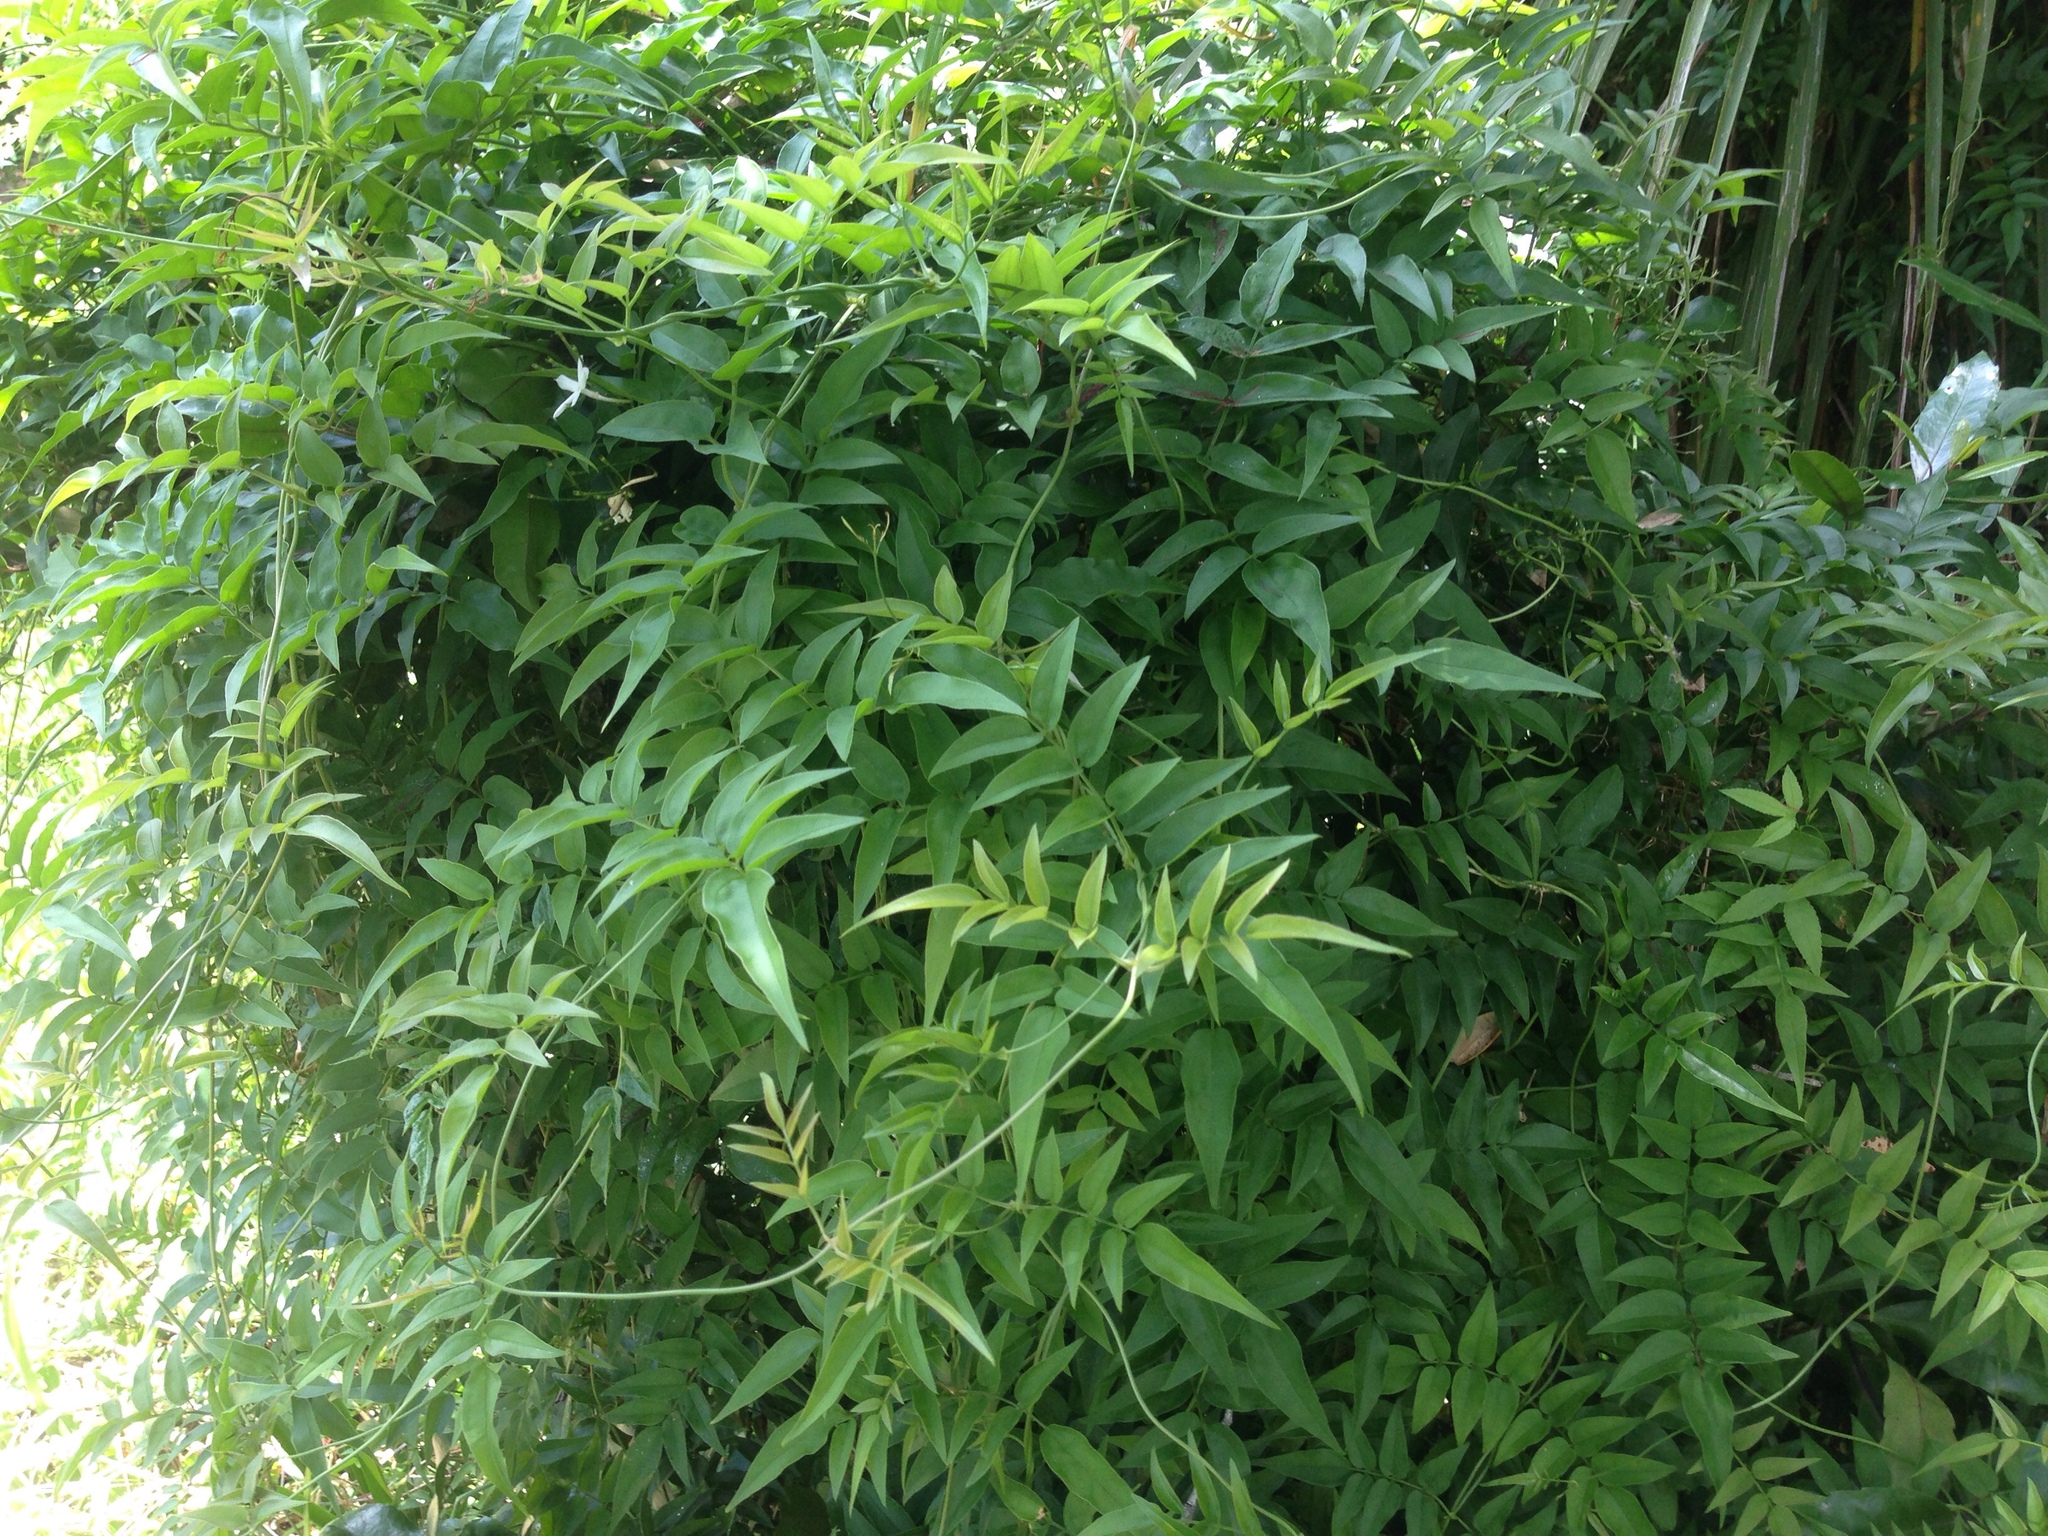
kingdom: Plantae
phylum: Tracheophyta
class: Magnoliopsida
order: Lamiales
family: Oleaceae
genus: Jasminum
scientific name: Jasminum polyanthum
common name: Pink jasmine
